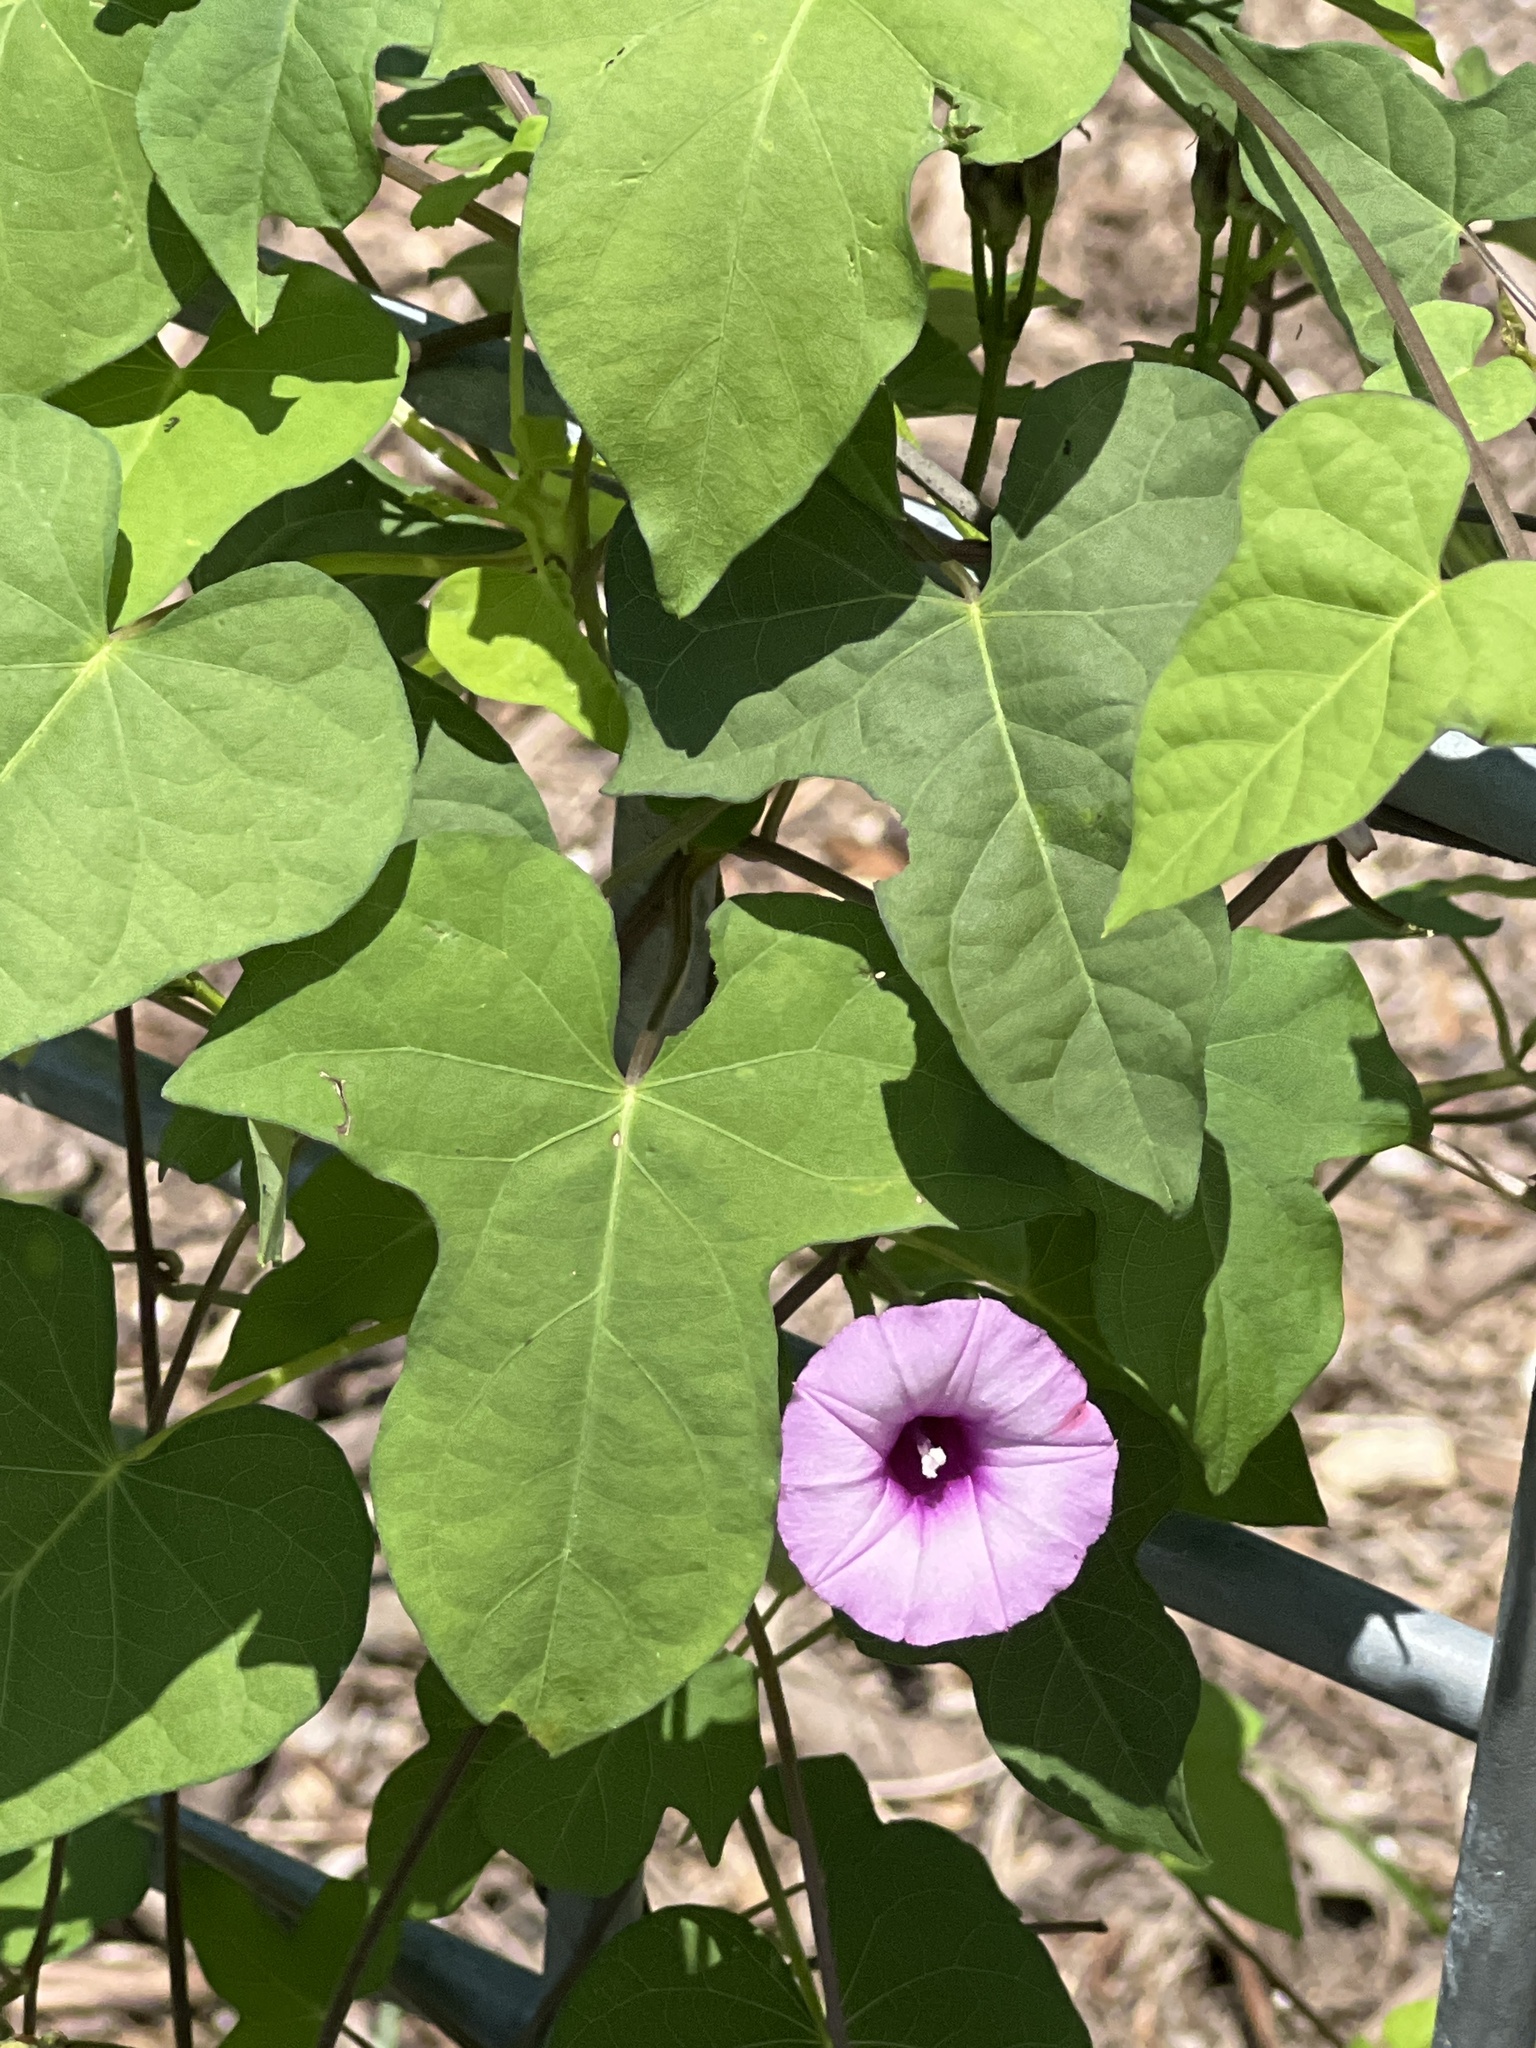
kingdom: Plantae
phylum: Tracheophyta
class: Magnoliopsida
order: Solanales
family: Convolvulaceae
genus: Ipomoea
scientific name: Ipomoea cordatotriloba
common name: Cotton morning glory
